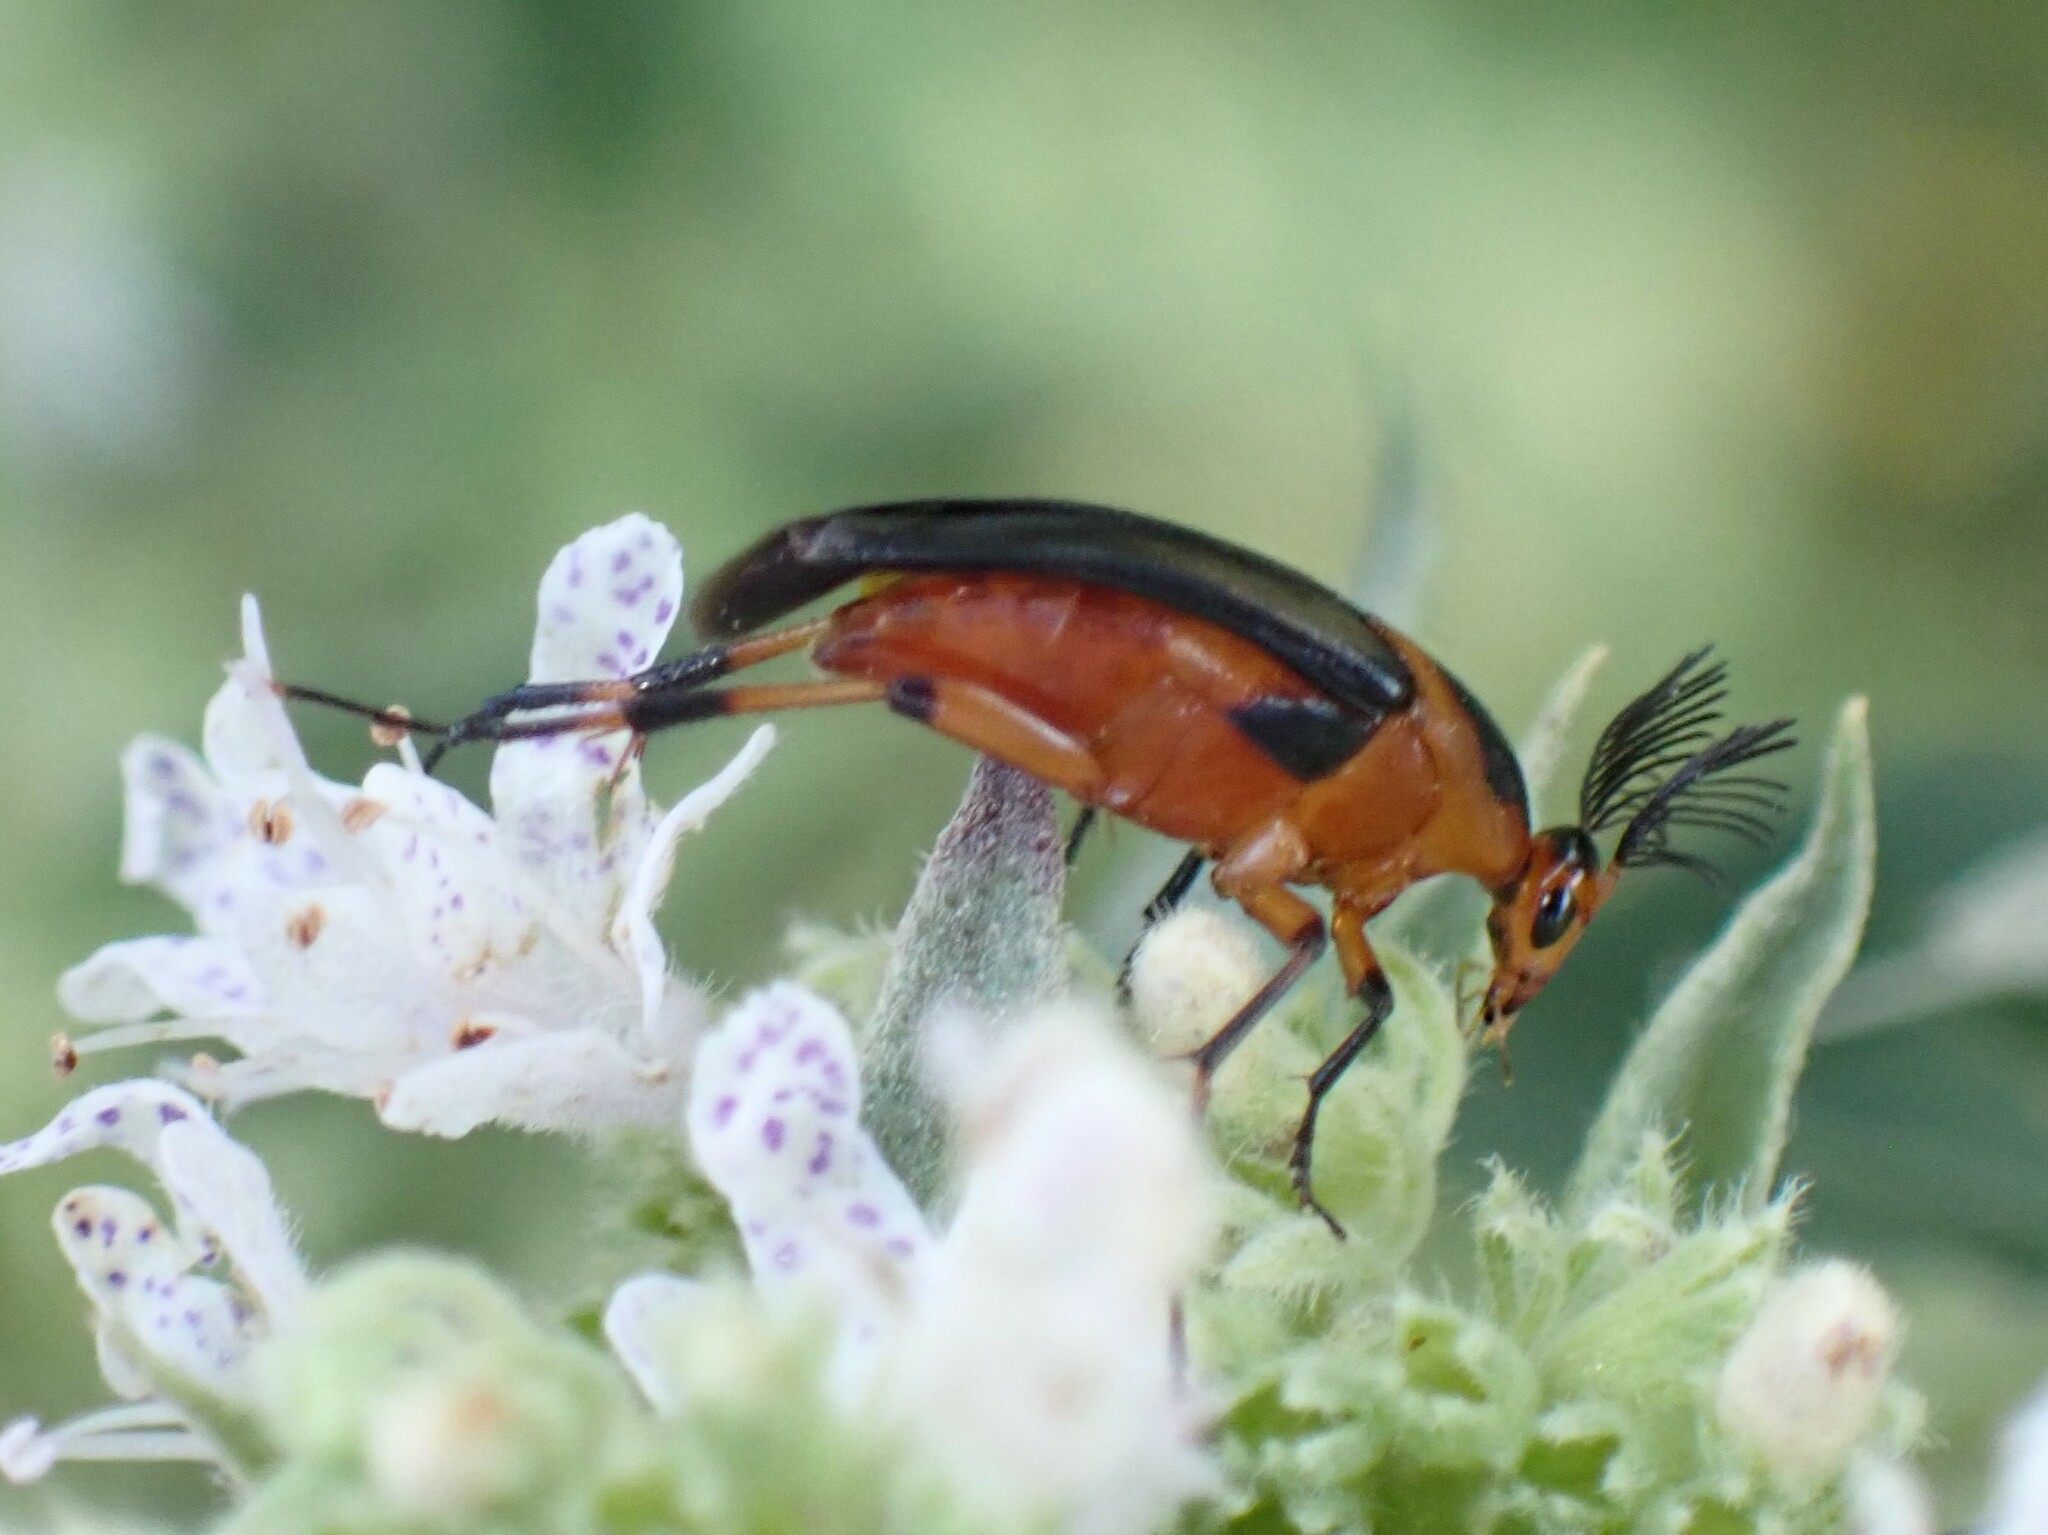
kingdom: Animalia
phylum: Arthropoda
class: Insecta
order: Coleoptera
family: Ripiphoridae
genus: Macrosiagon
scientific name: Macrosiagon limbatum
